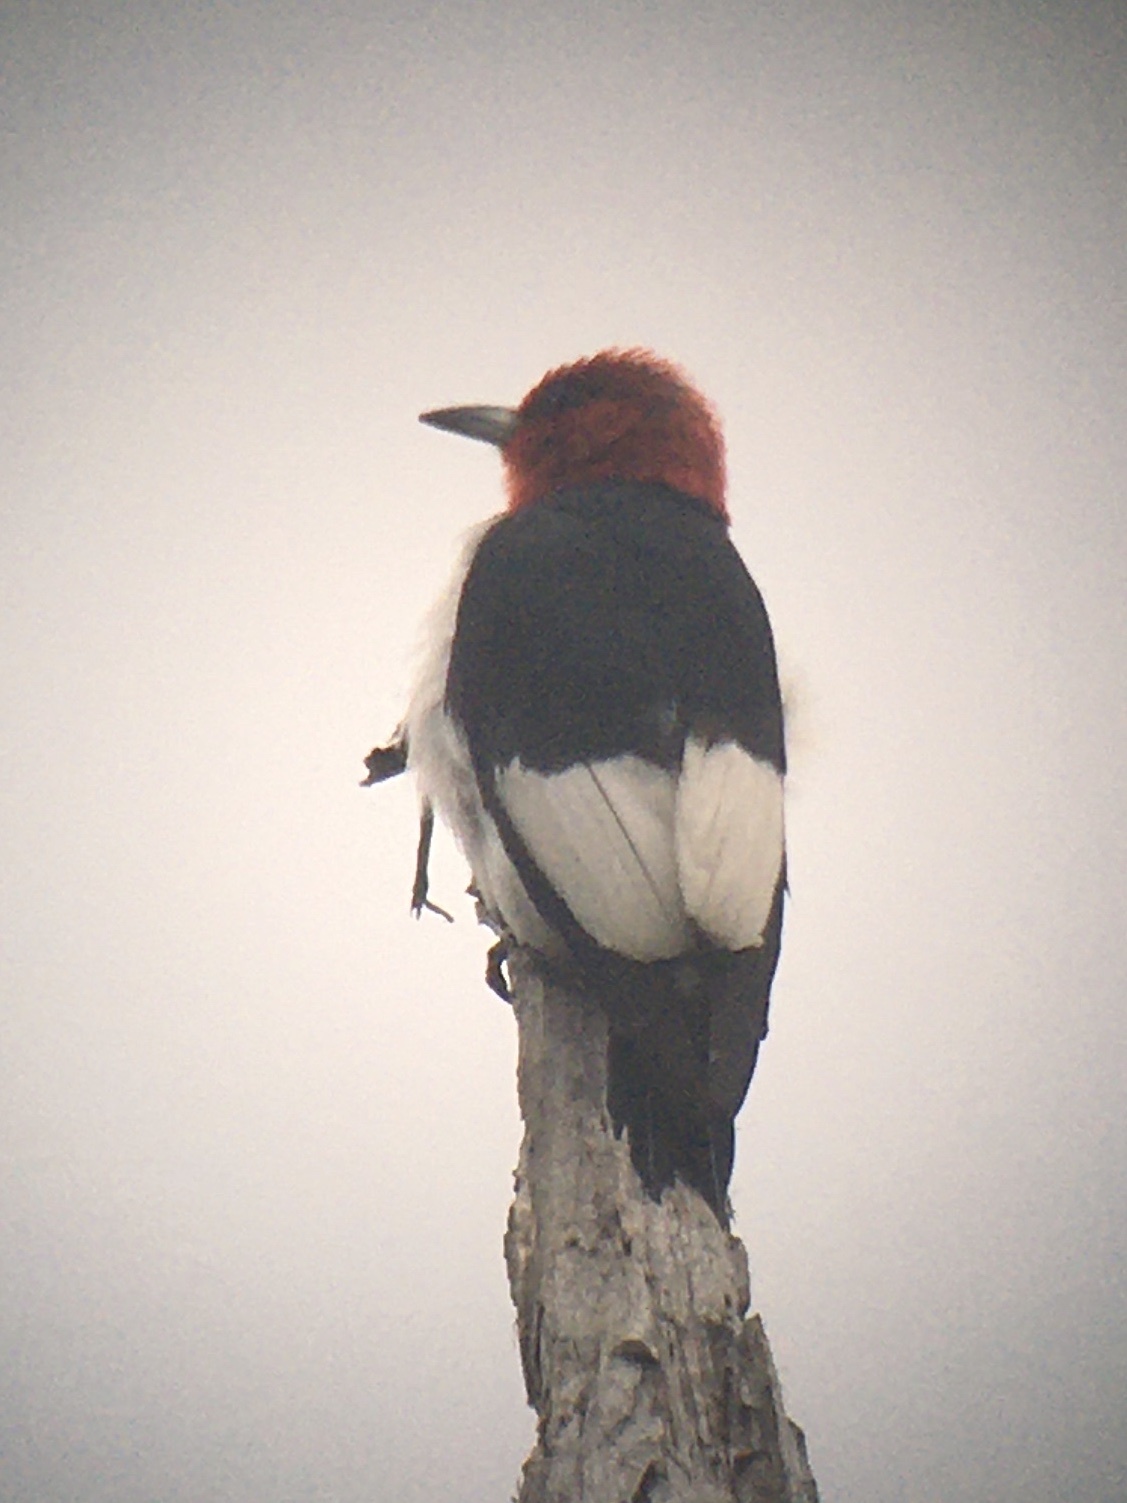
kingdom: Animalia
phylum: Chordata
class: Aves
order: Piciformes
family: Picidae
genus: Melanerpes
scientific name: Melanerpes erythrocephalus
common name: Red-headed woodpecker
